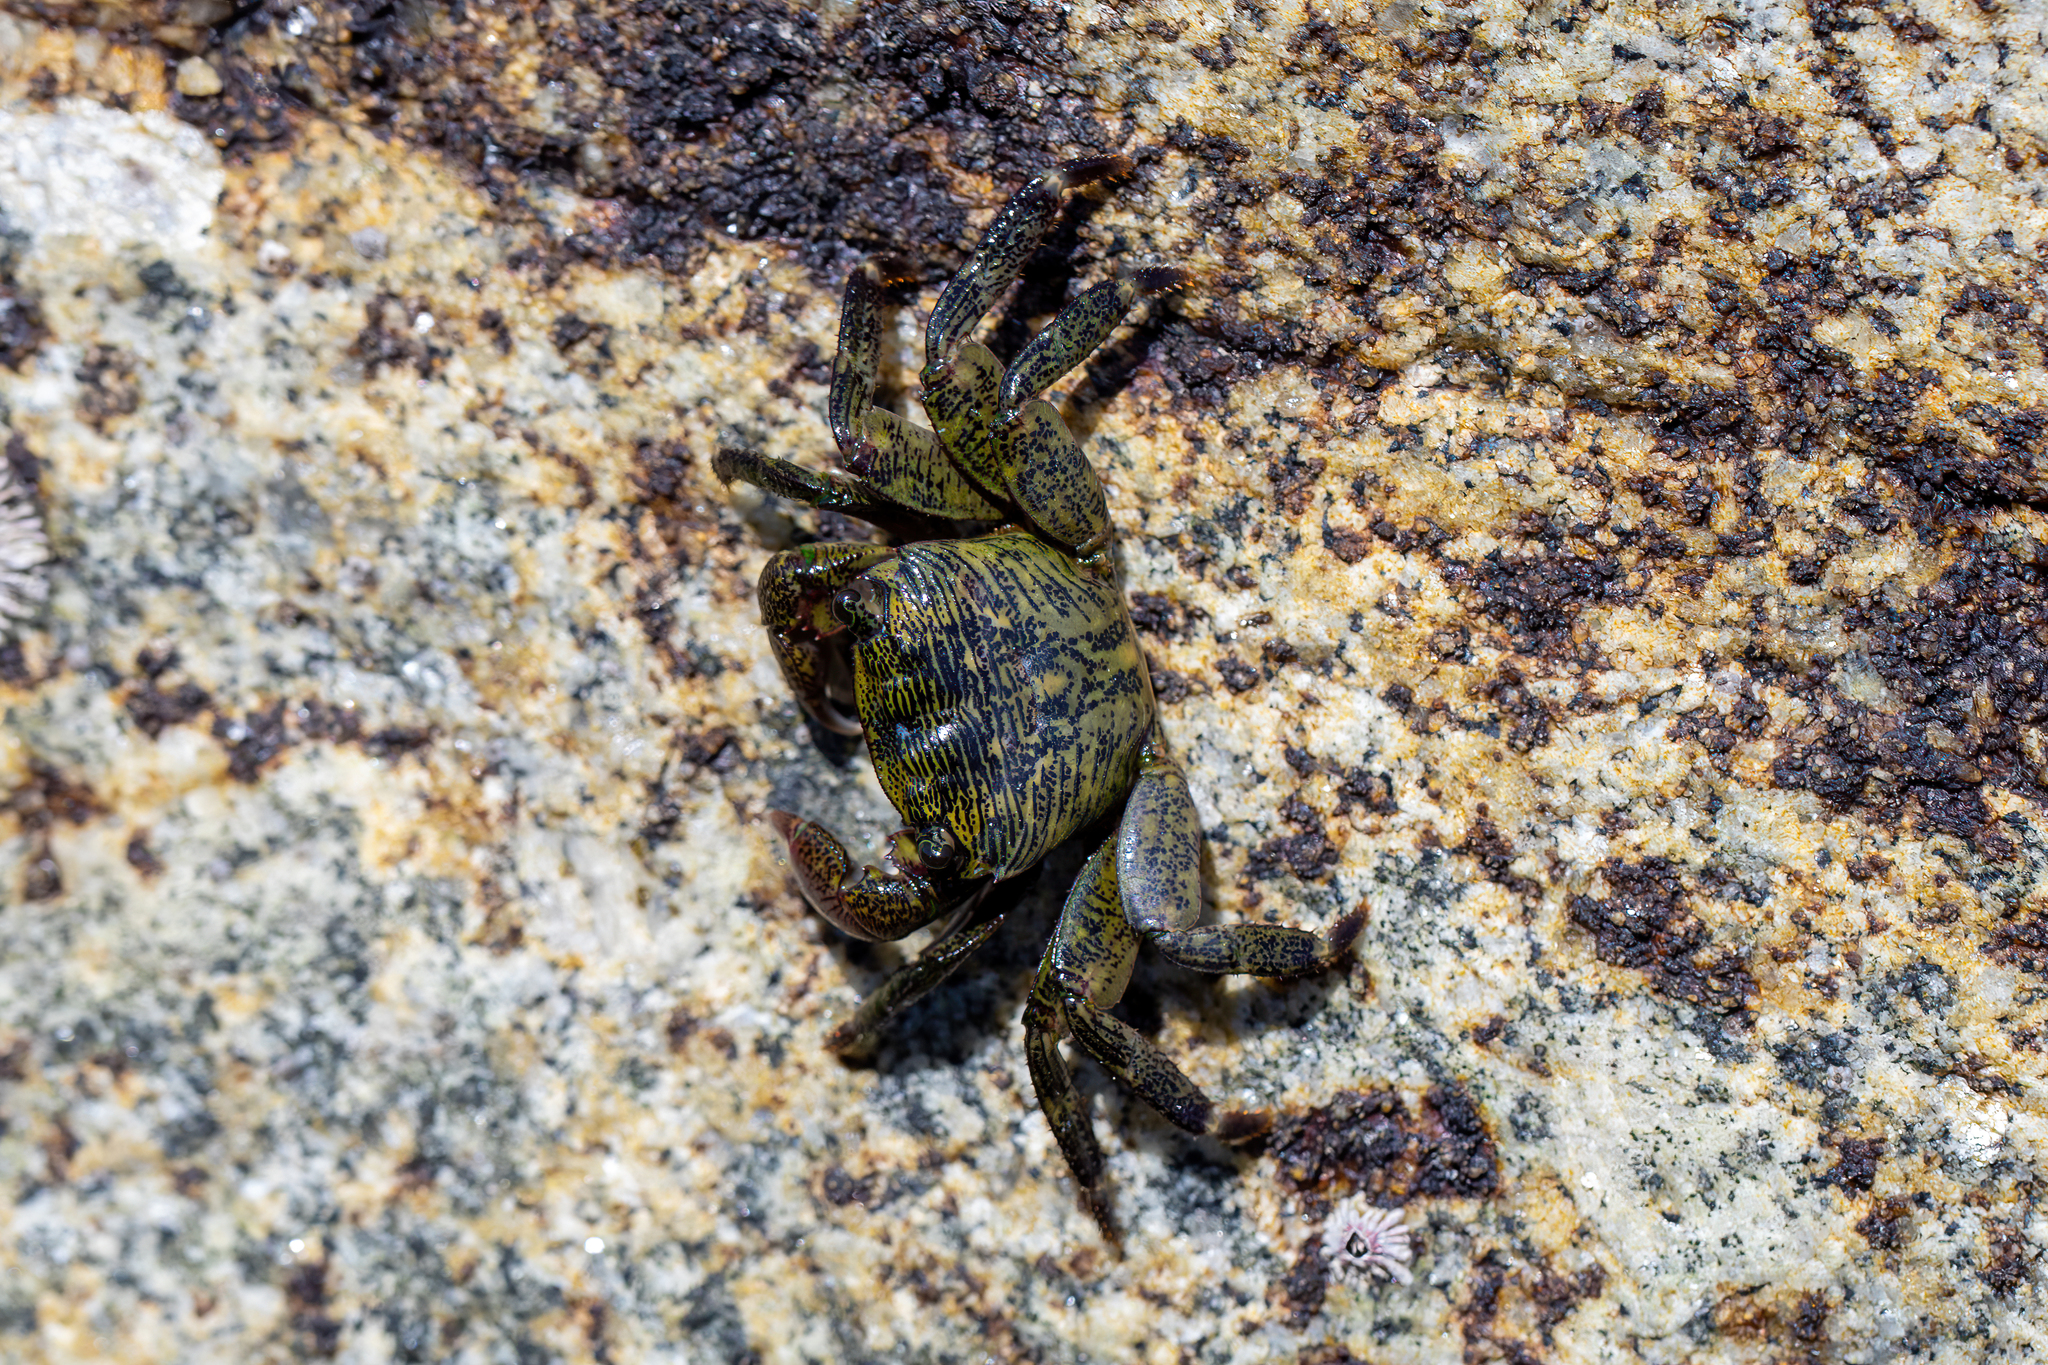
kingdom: Animalia
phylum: Arthropoda
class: Malacostraca
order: Decapoda
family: Grapsidae
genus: Pachygrapsus
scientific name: Pachygrapsus crassipes
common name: Striped shore crab
